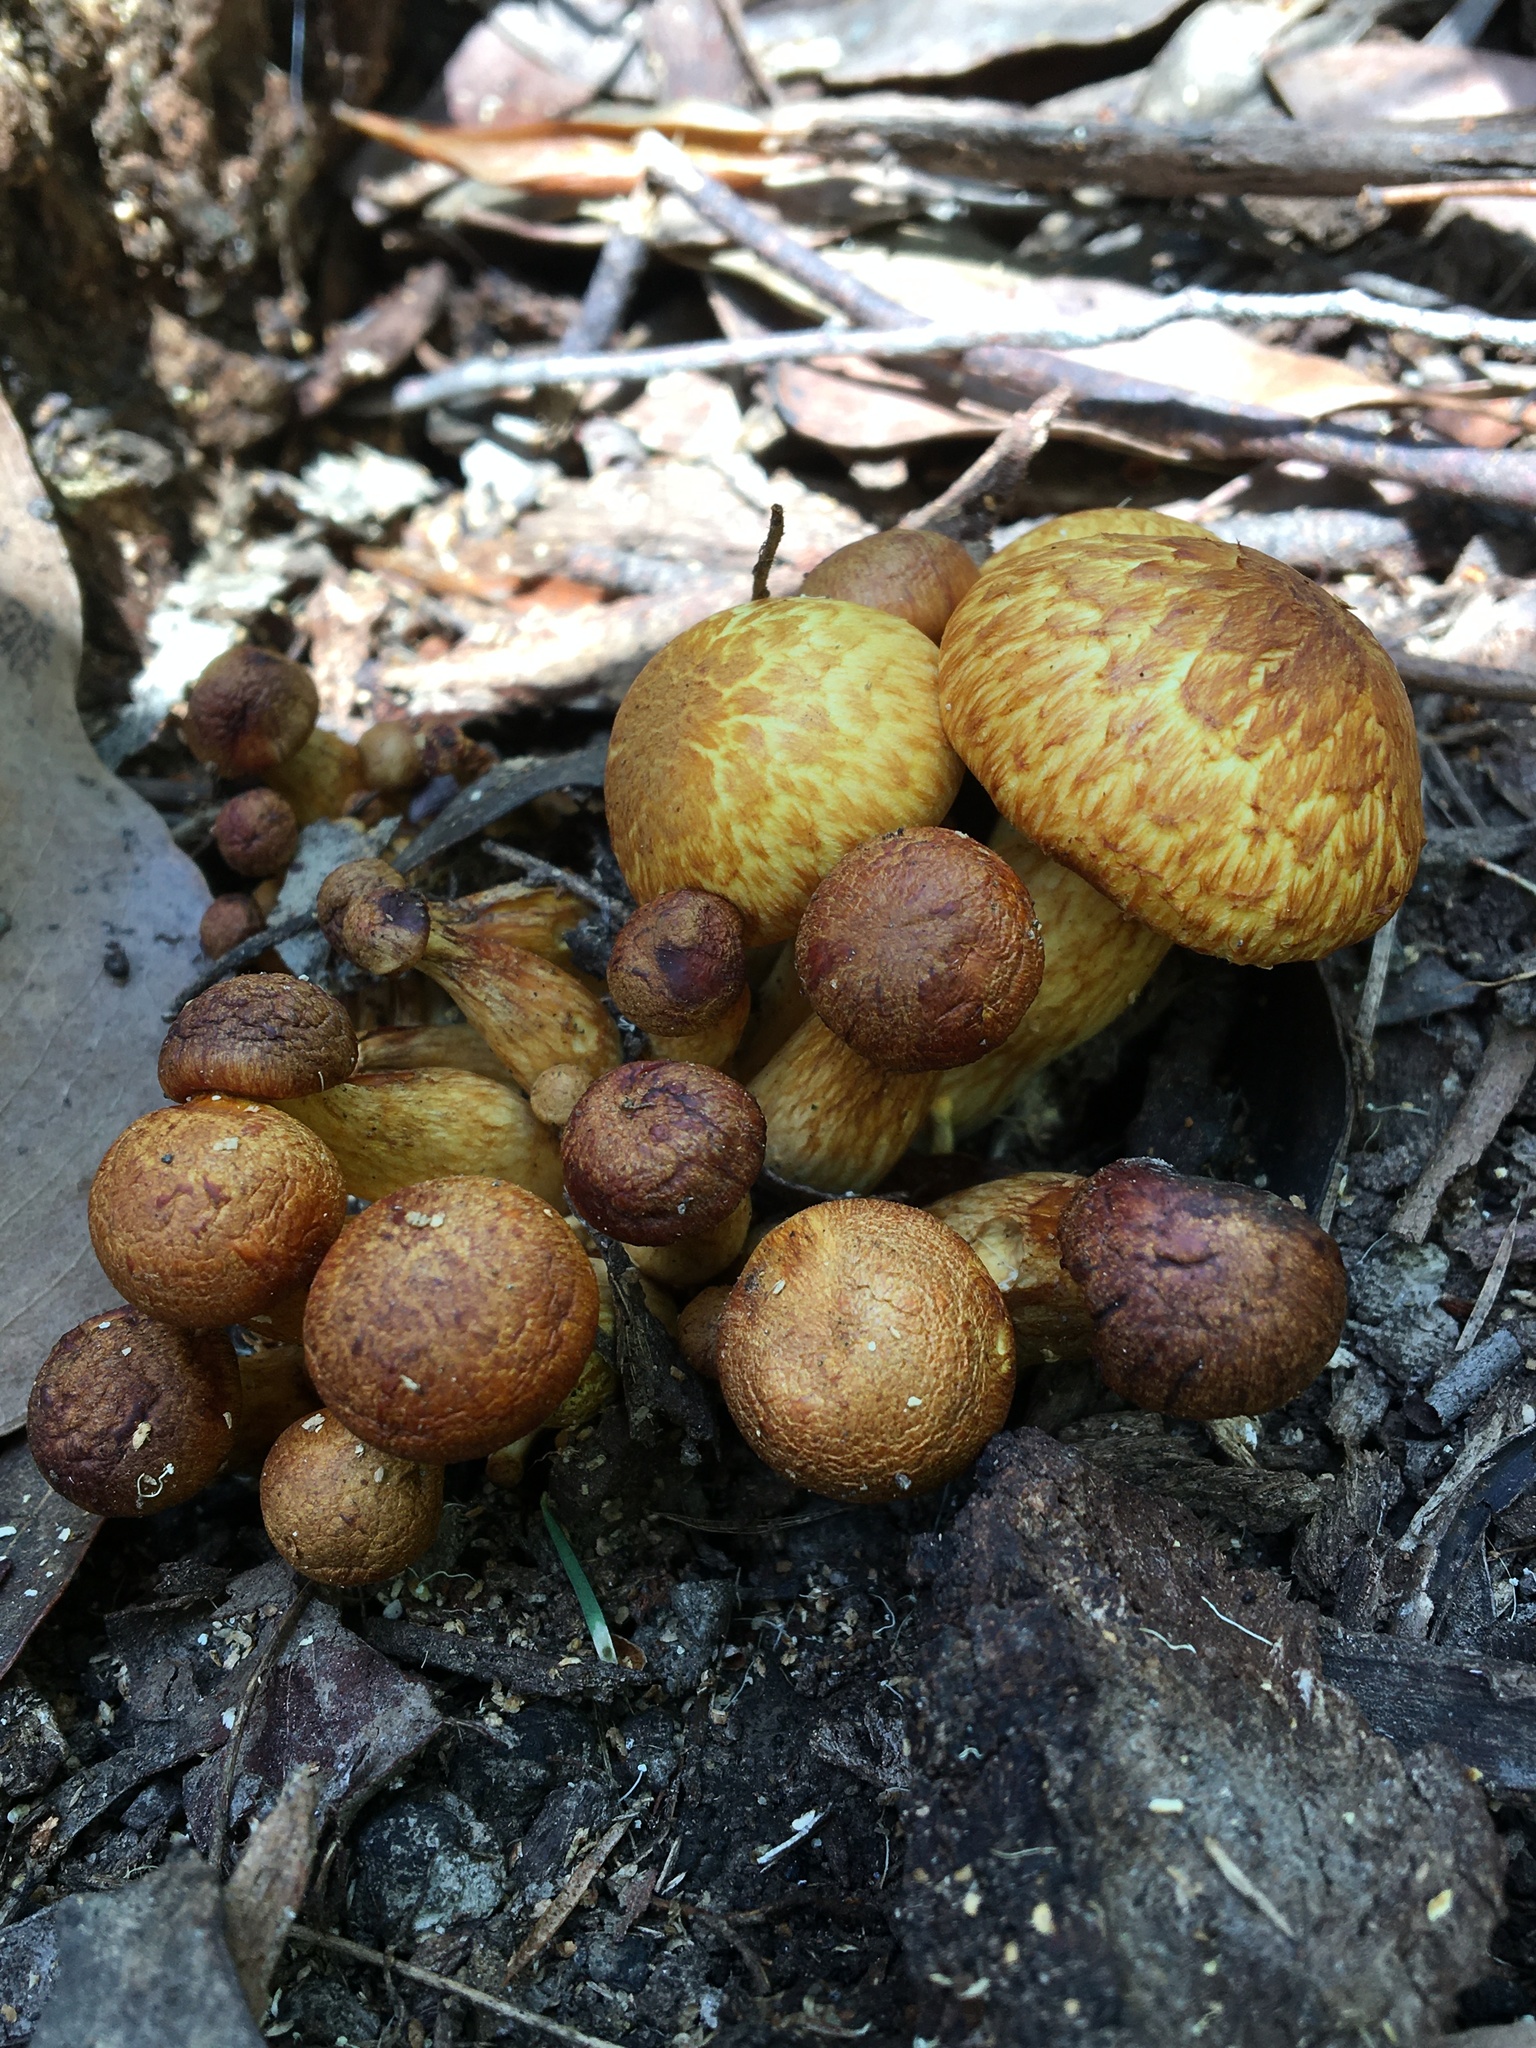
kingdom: Fungi
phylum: Basidiomycota
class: Agaricomycetes
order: Agaricales
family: Hymenogastraceae
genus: Gymnopilus
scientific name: Gymnopilus junonius
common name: Spectacular rustgill
